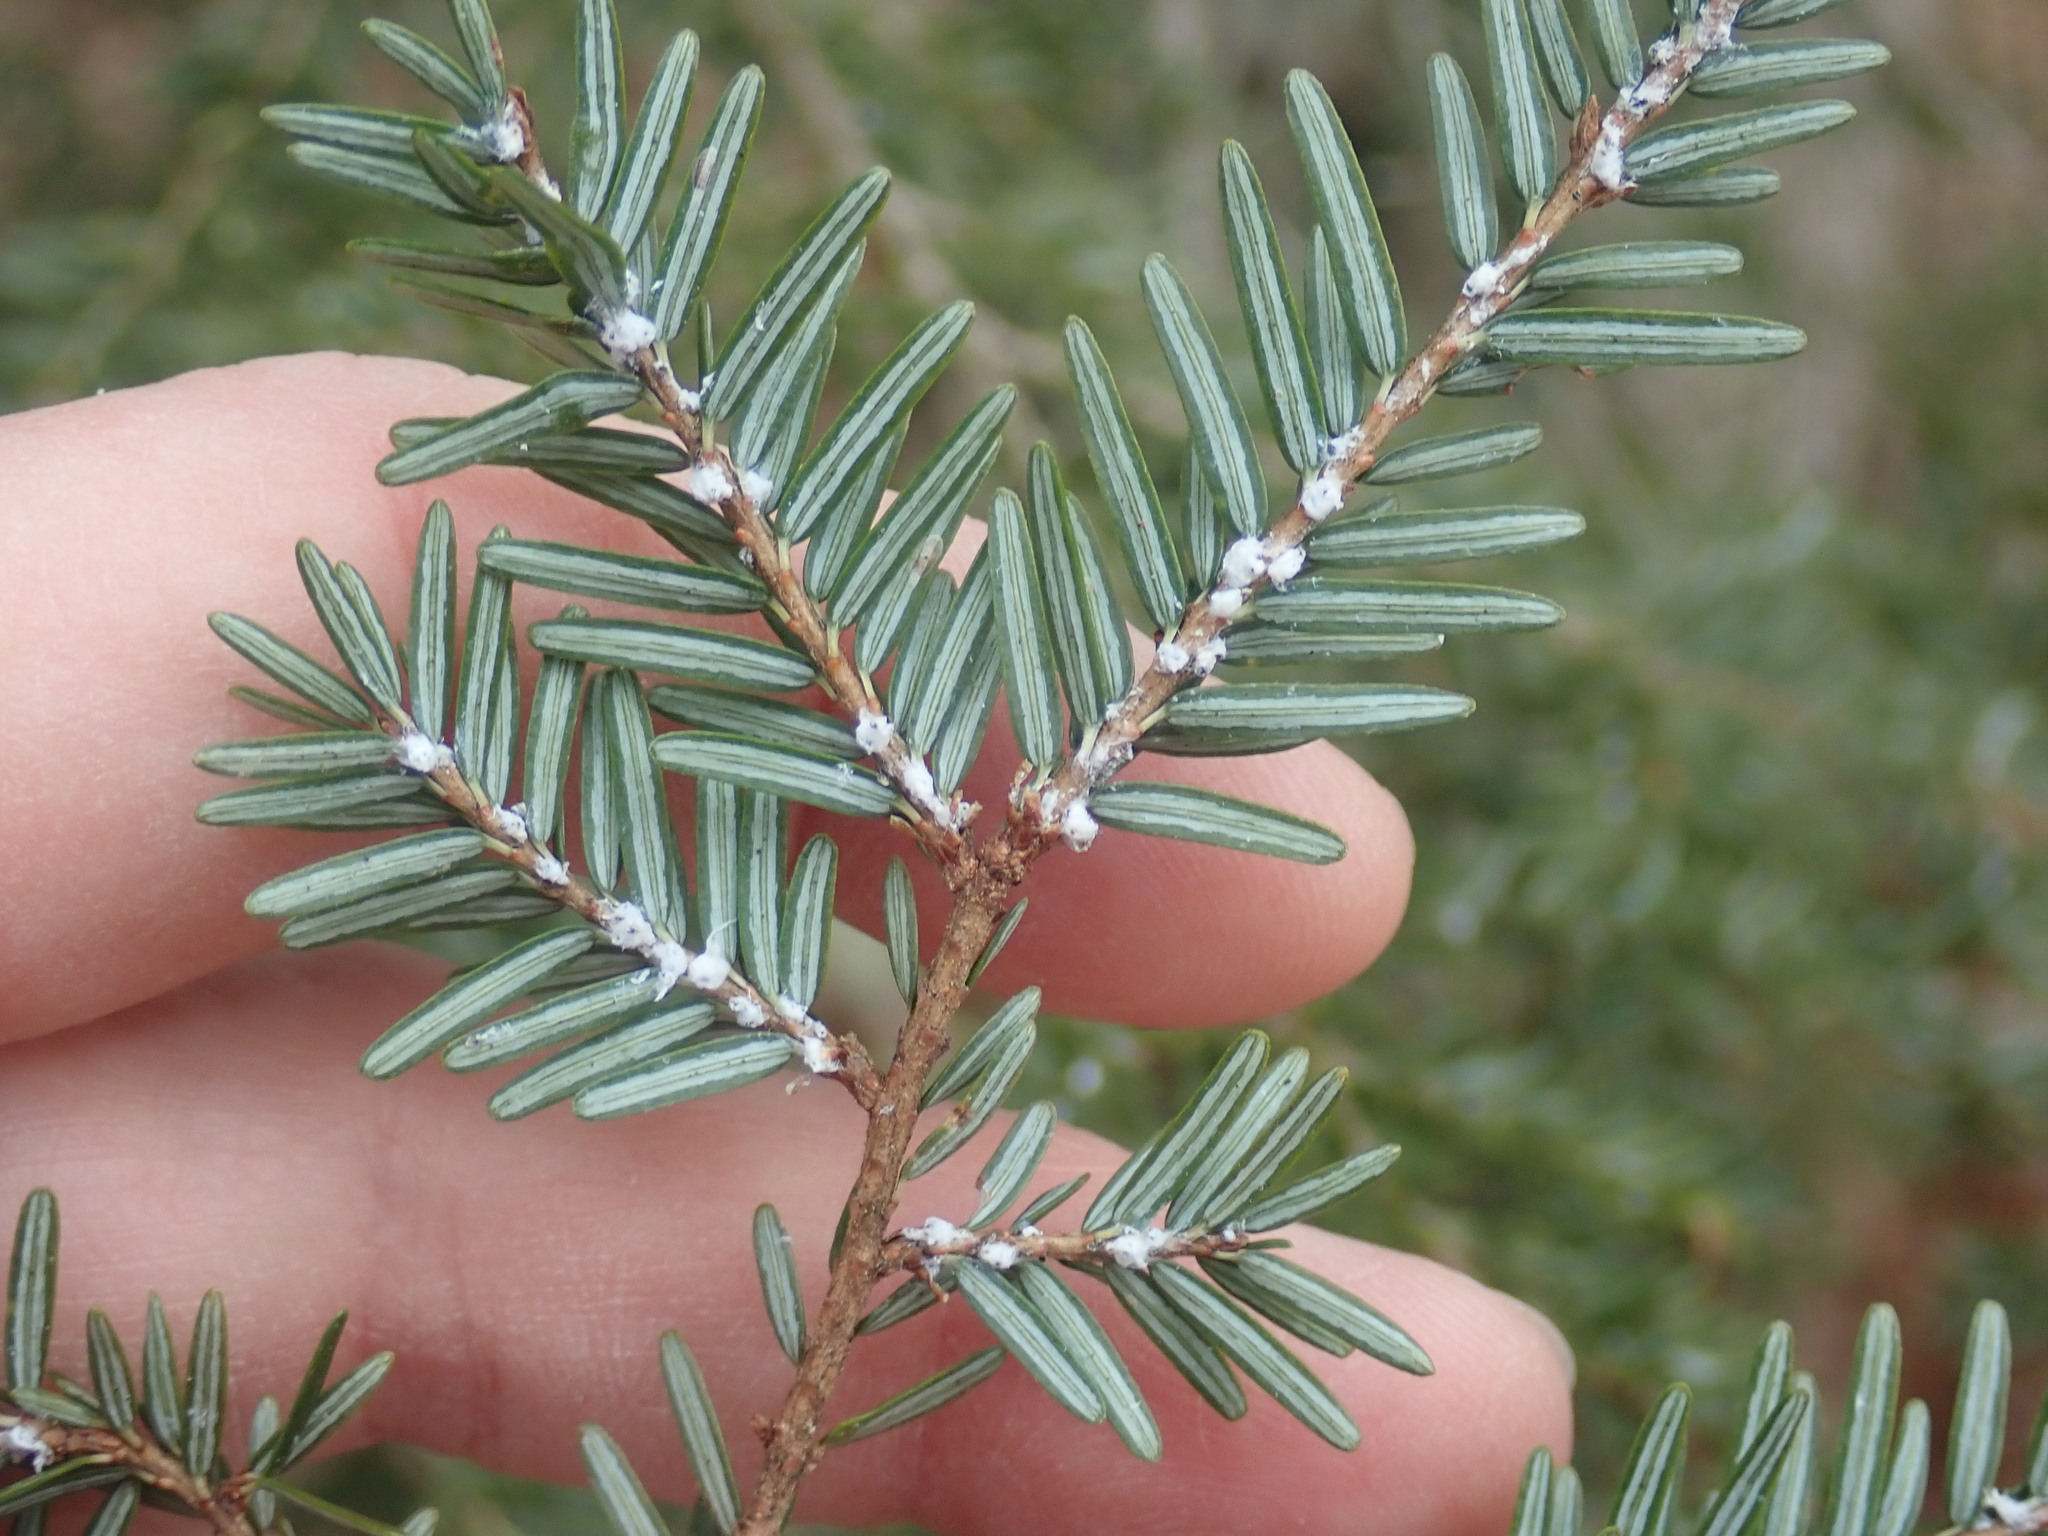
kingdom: Animalia
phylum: Arthropoda
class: Insecta
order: Hemiptera
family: Adelgidae
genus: Adelges
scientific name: Adelges tsugae
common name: Hemlock woolly adelgid
